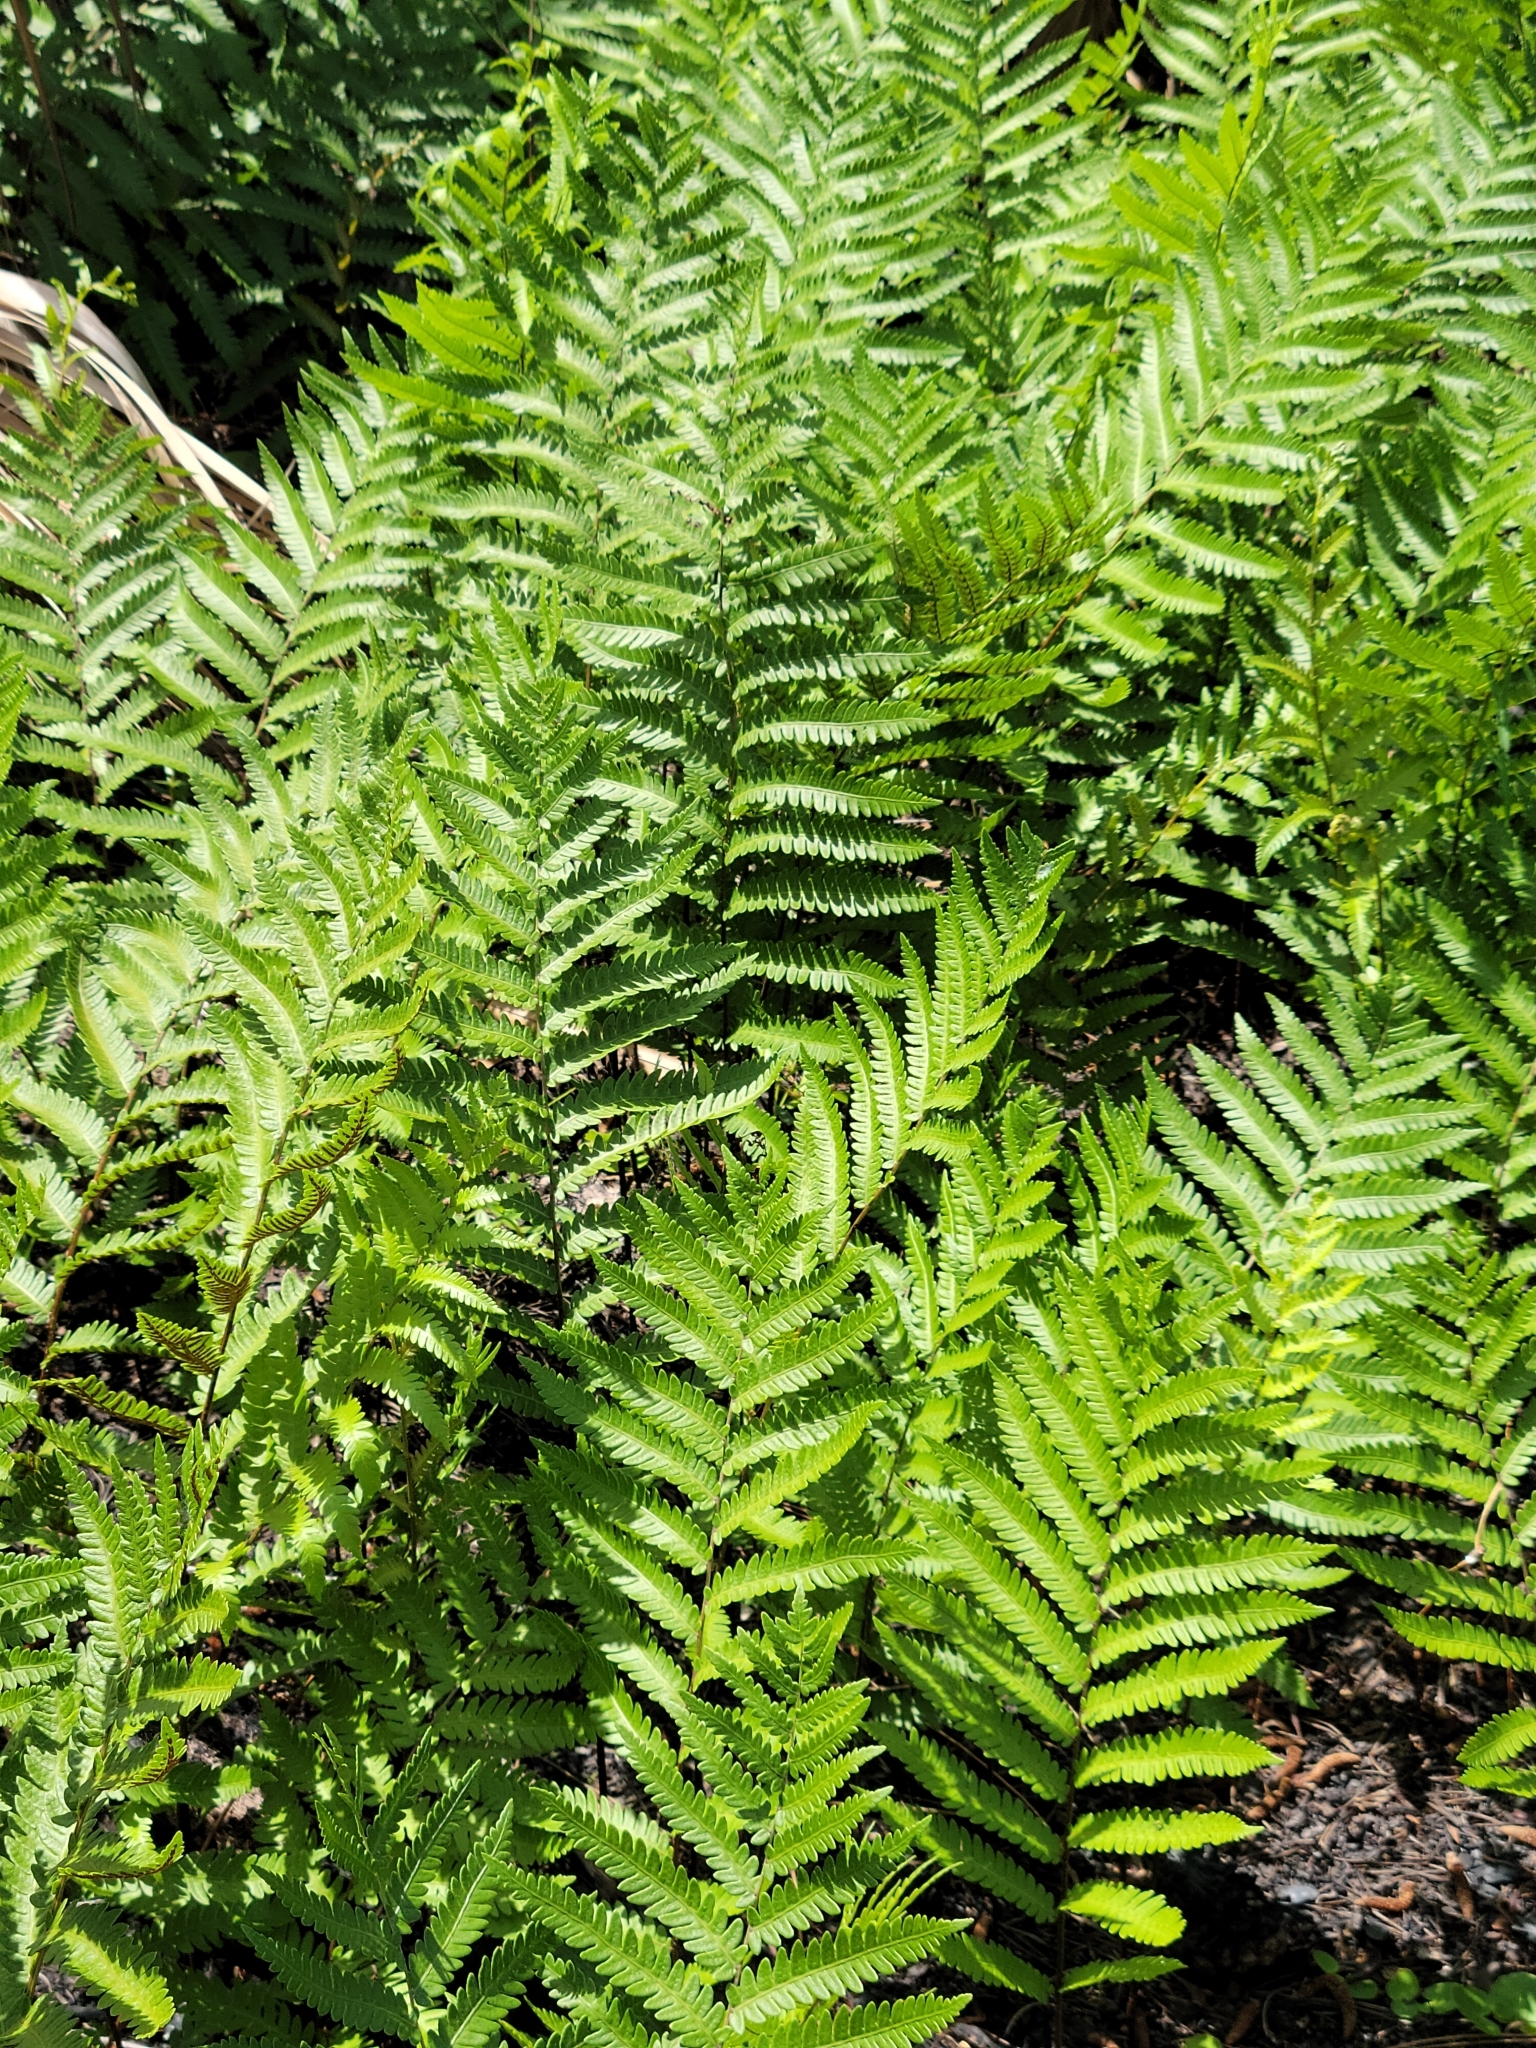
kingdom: Plantae
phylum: Tracheophyta
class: Polypodiopsida
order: Polypodiales
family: Blechnaceae
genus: Anchistea
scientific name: Anchistea virginica
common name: Virginia chain fern
